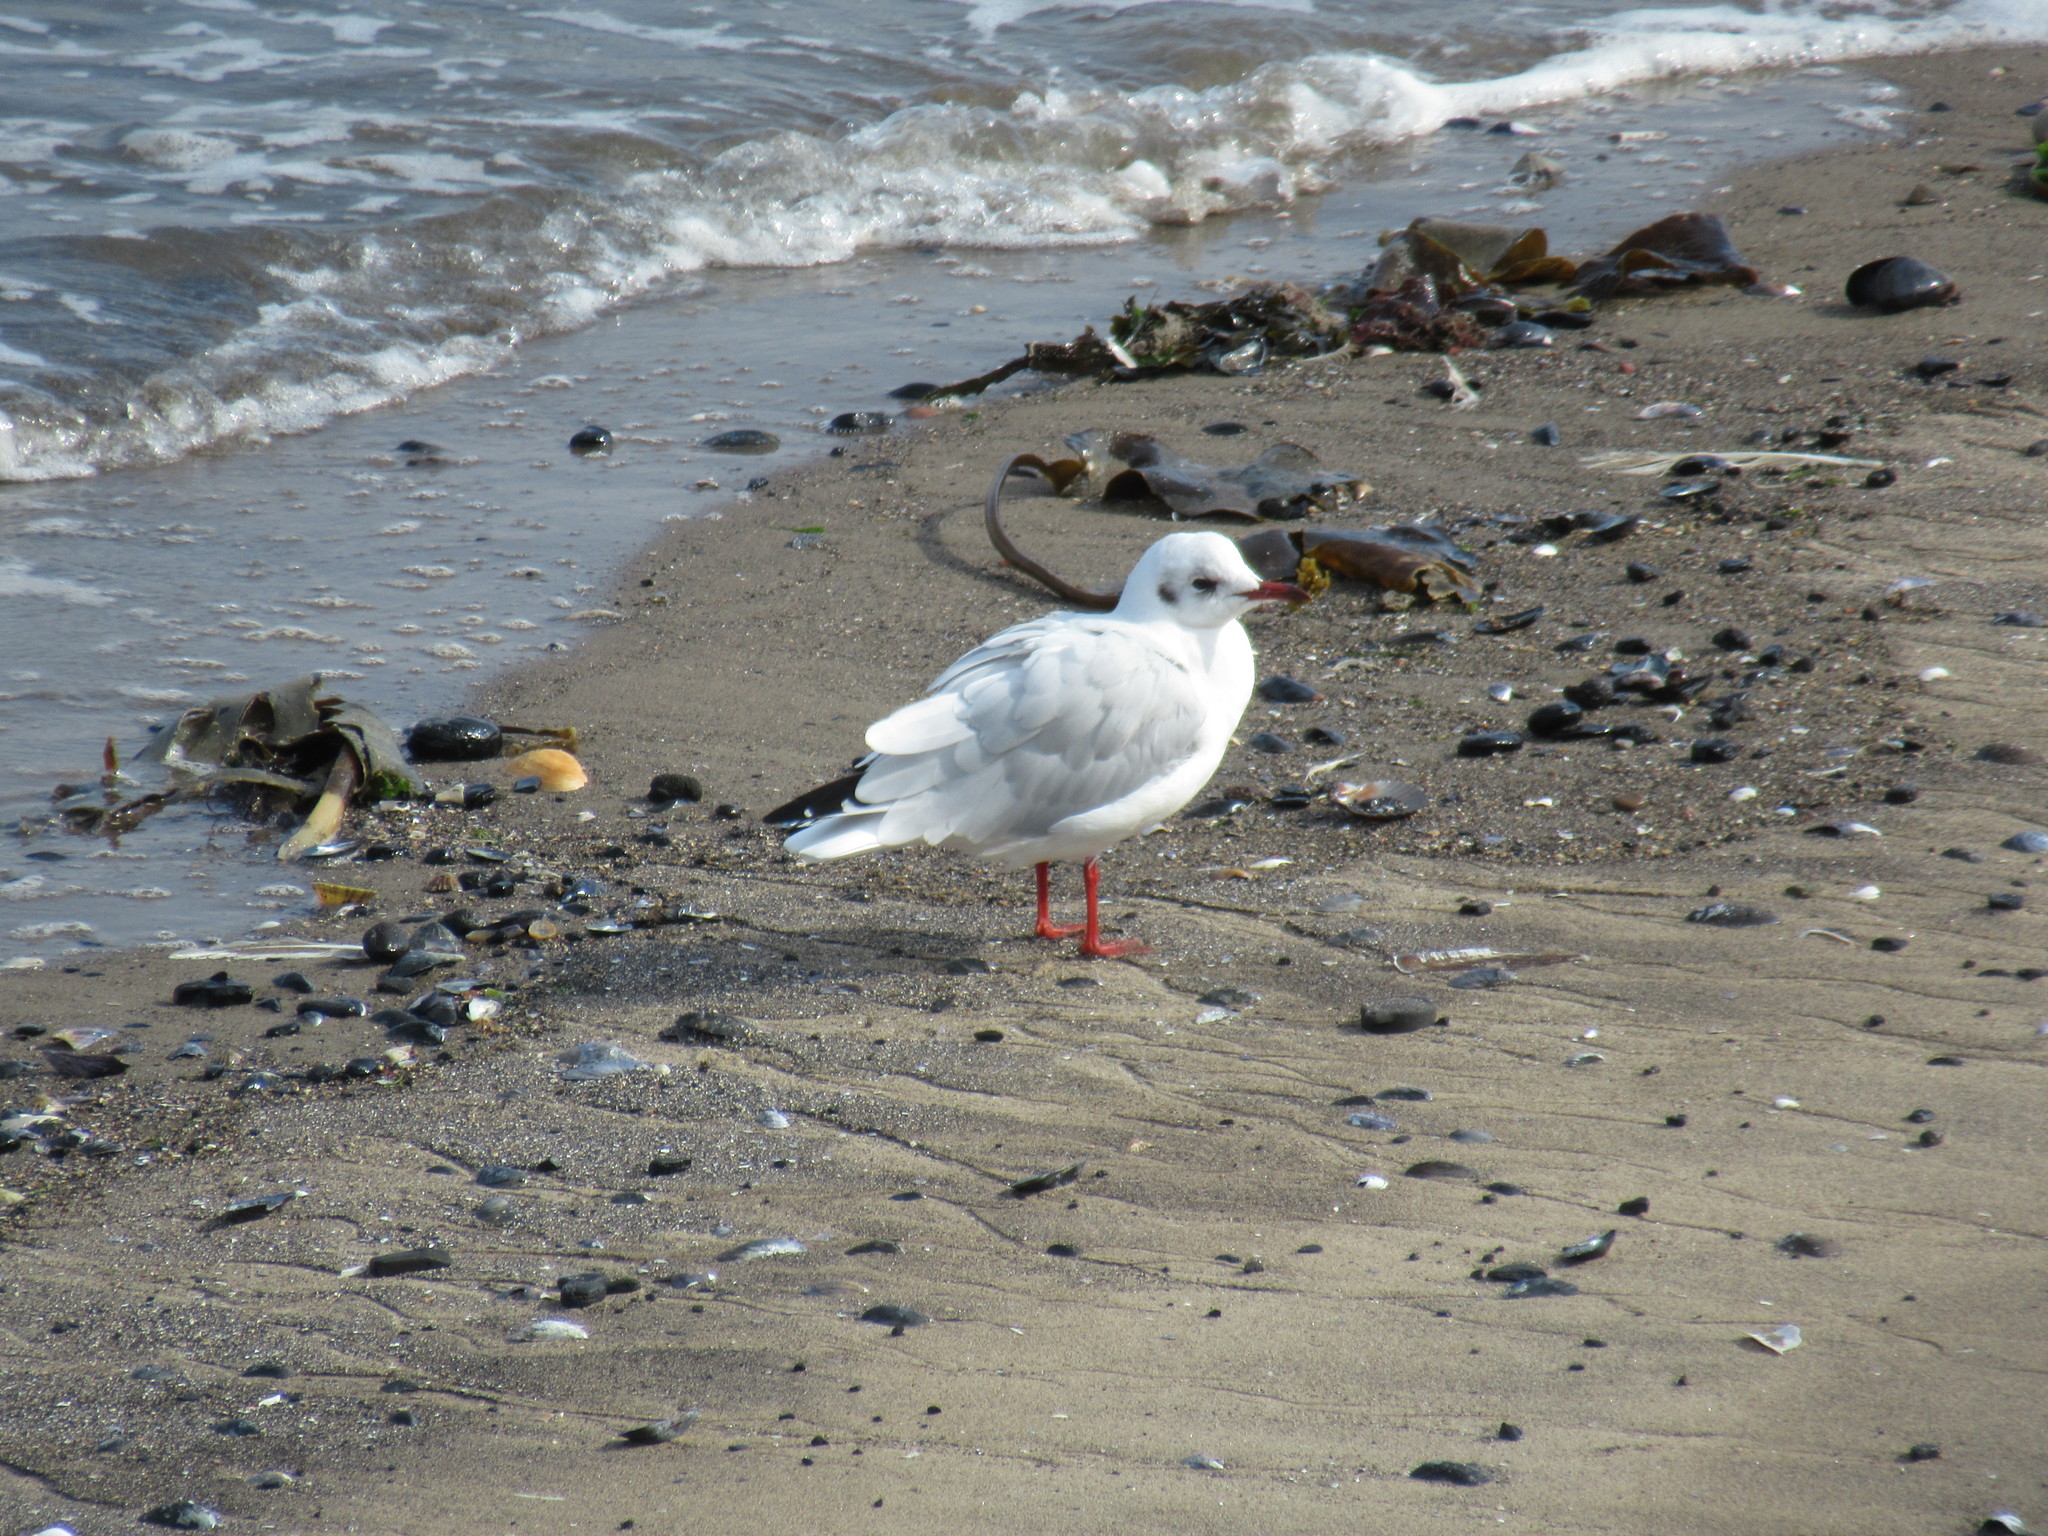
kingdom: Animalia
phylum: Chordata
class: Aves
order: Charadriiformes
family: Laridae
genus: Chroicocephalus
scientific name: Chroicocephalus ridibundus
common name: Black-headed gull
